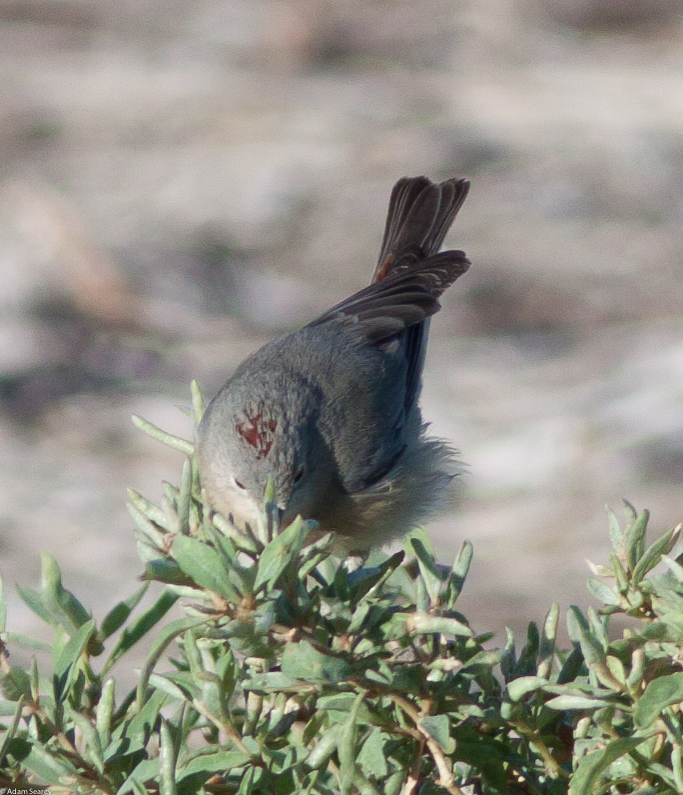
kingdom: Animalia
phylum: Chordata
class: Aves
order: Passeriformes
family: Parulidae
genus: Leiothlypis
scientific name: Leiothlypis luciae
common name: Lucy's warbler
